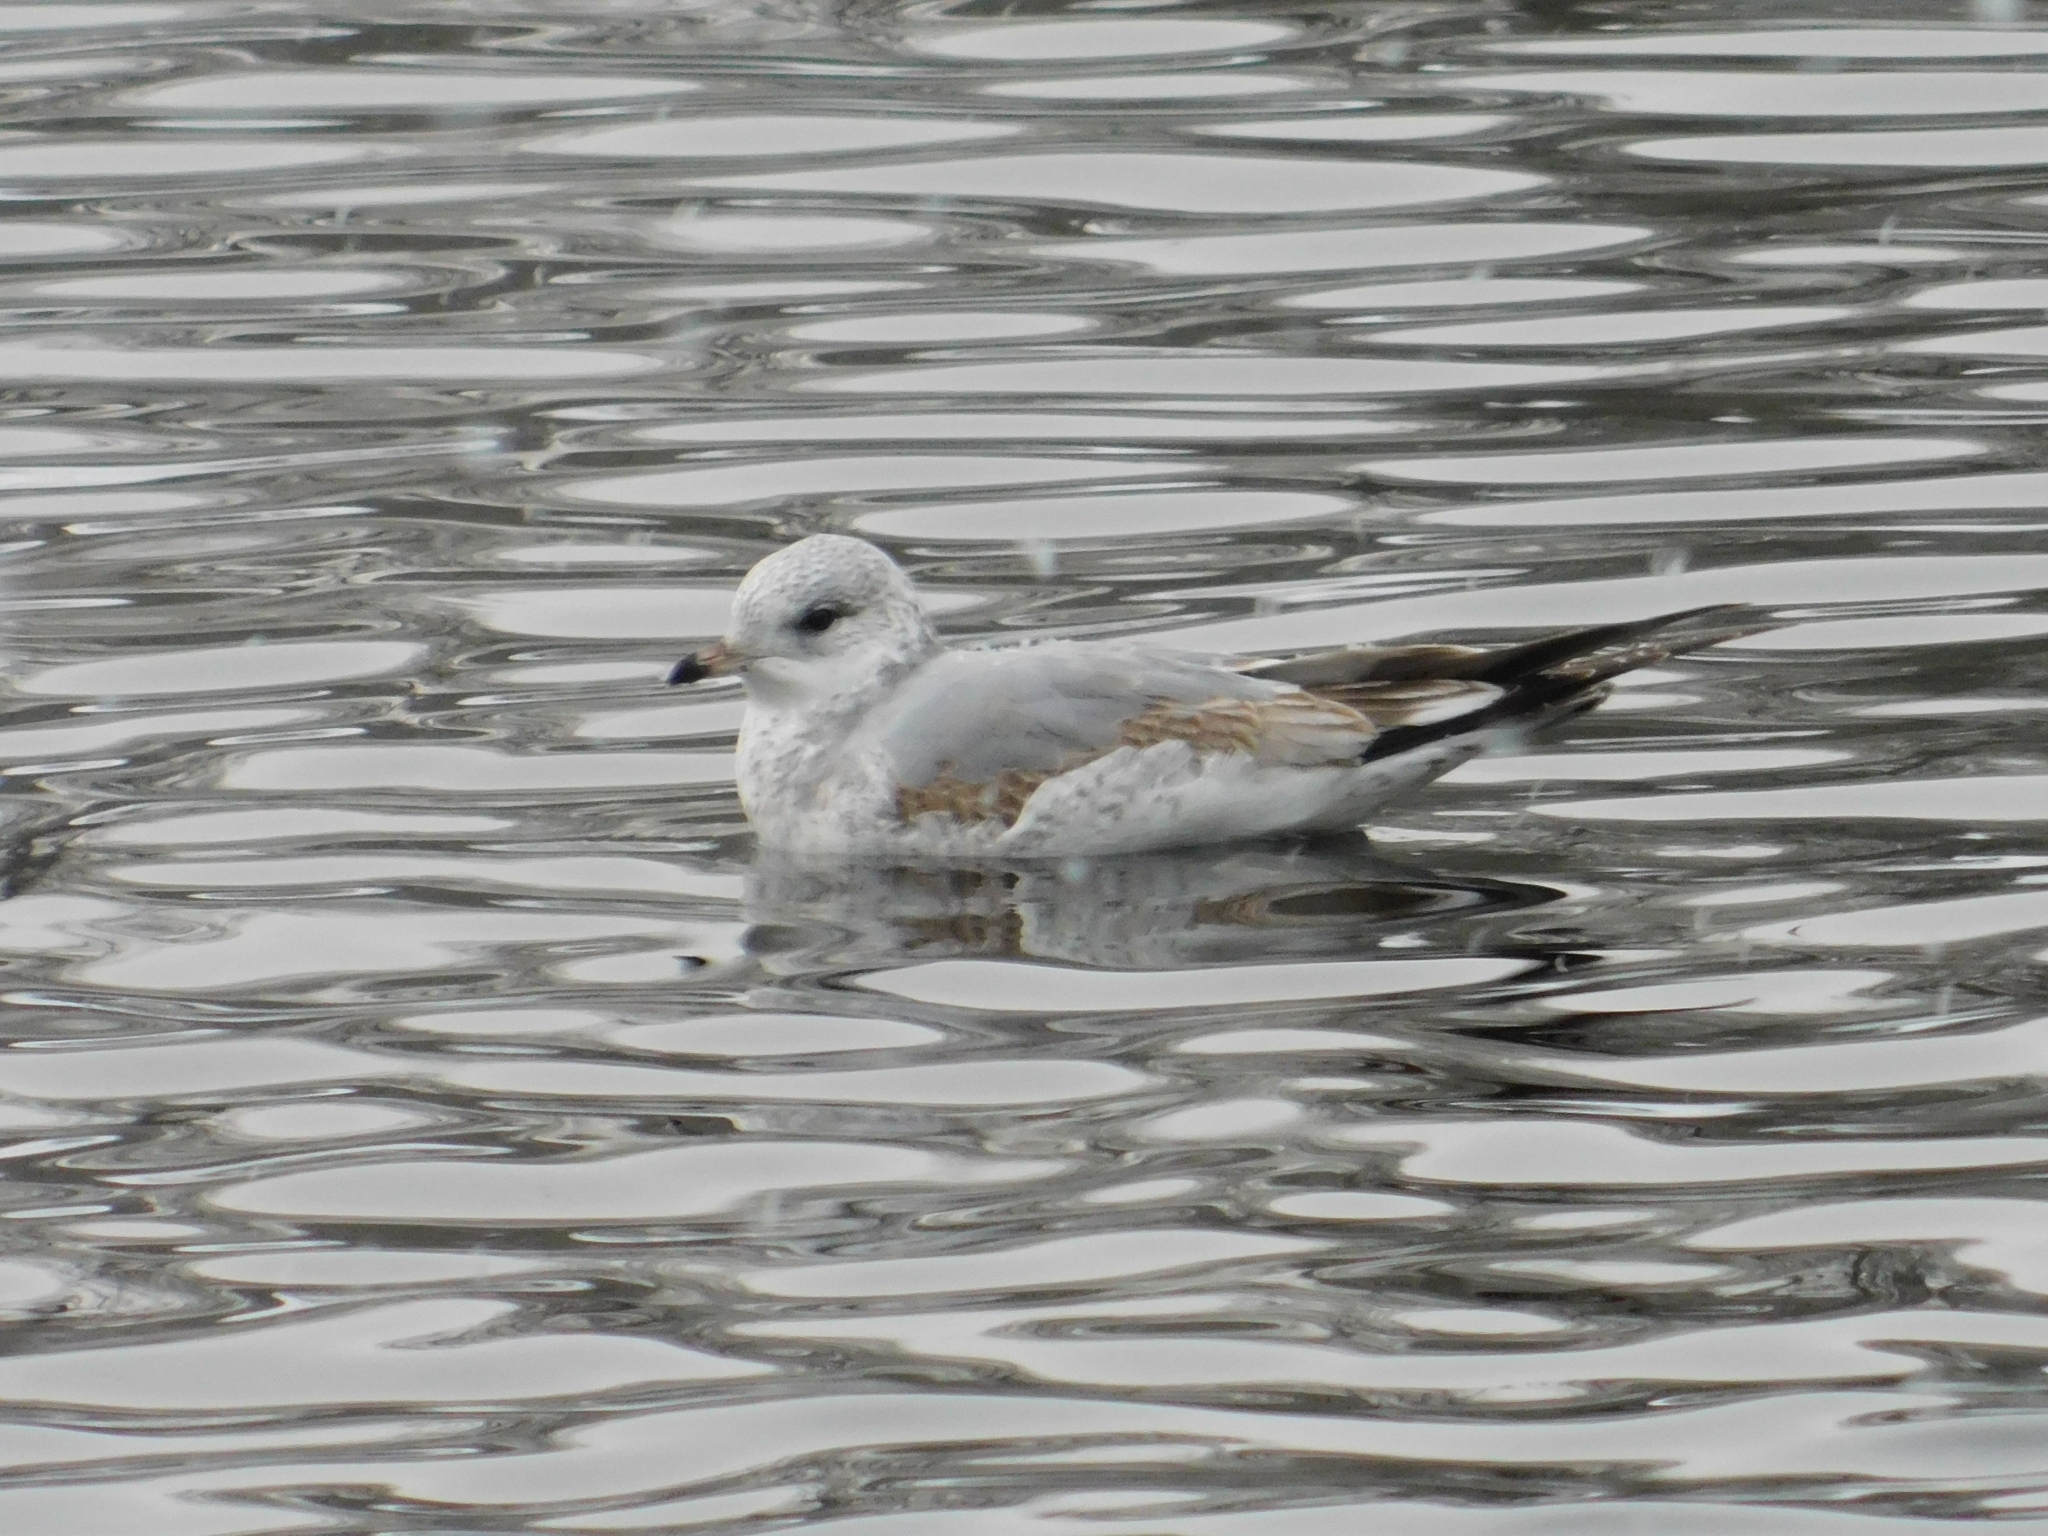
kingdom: Animalia
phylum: Chordata
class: Aves
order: Charadriiformes
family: Laridae
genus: Larus
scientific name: Larus canus
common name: Mew gull
